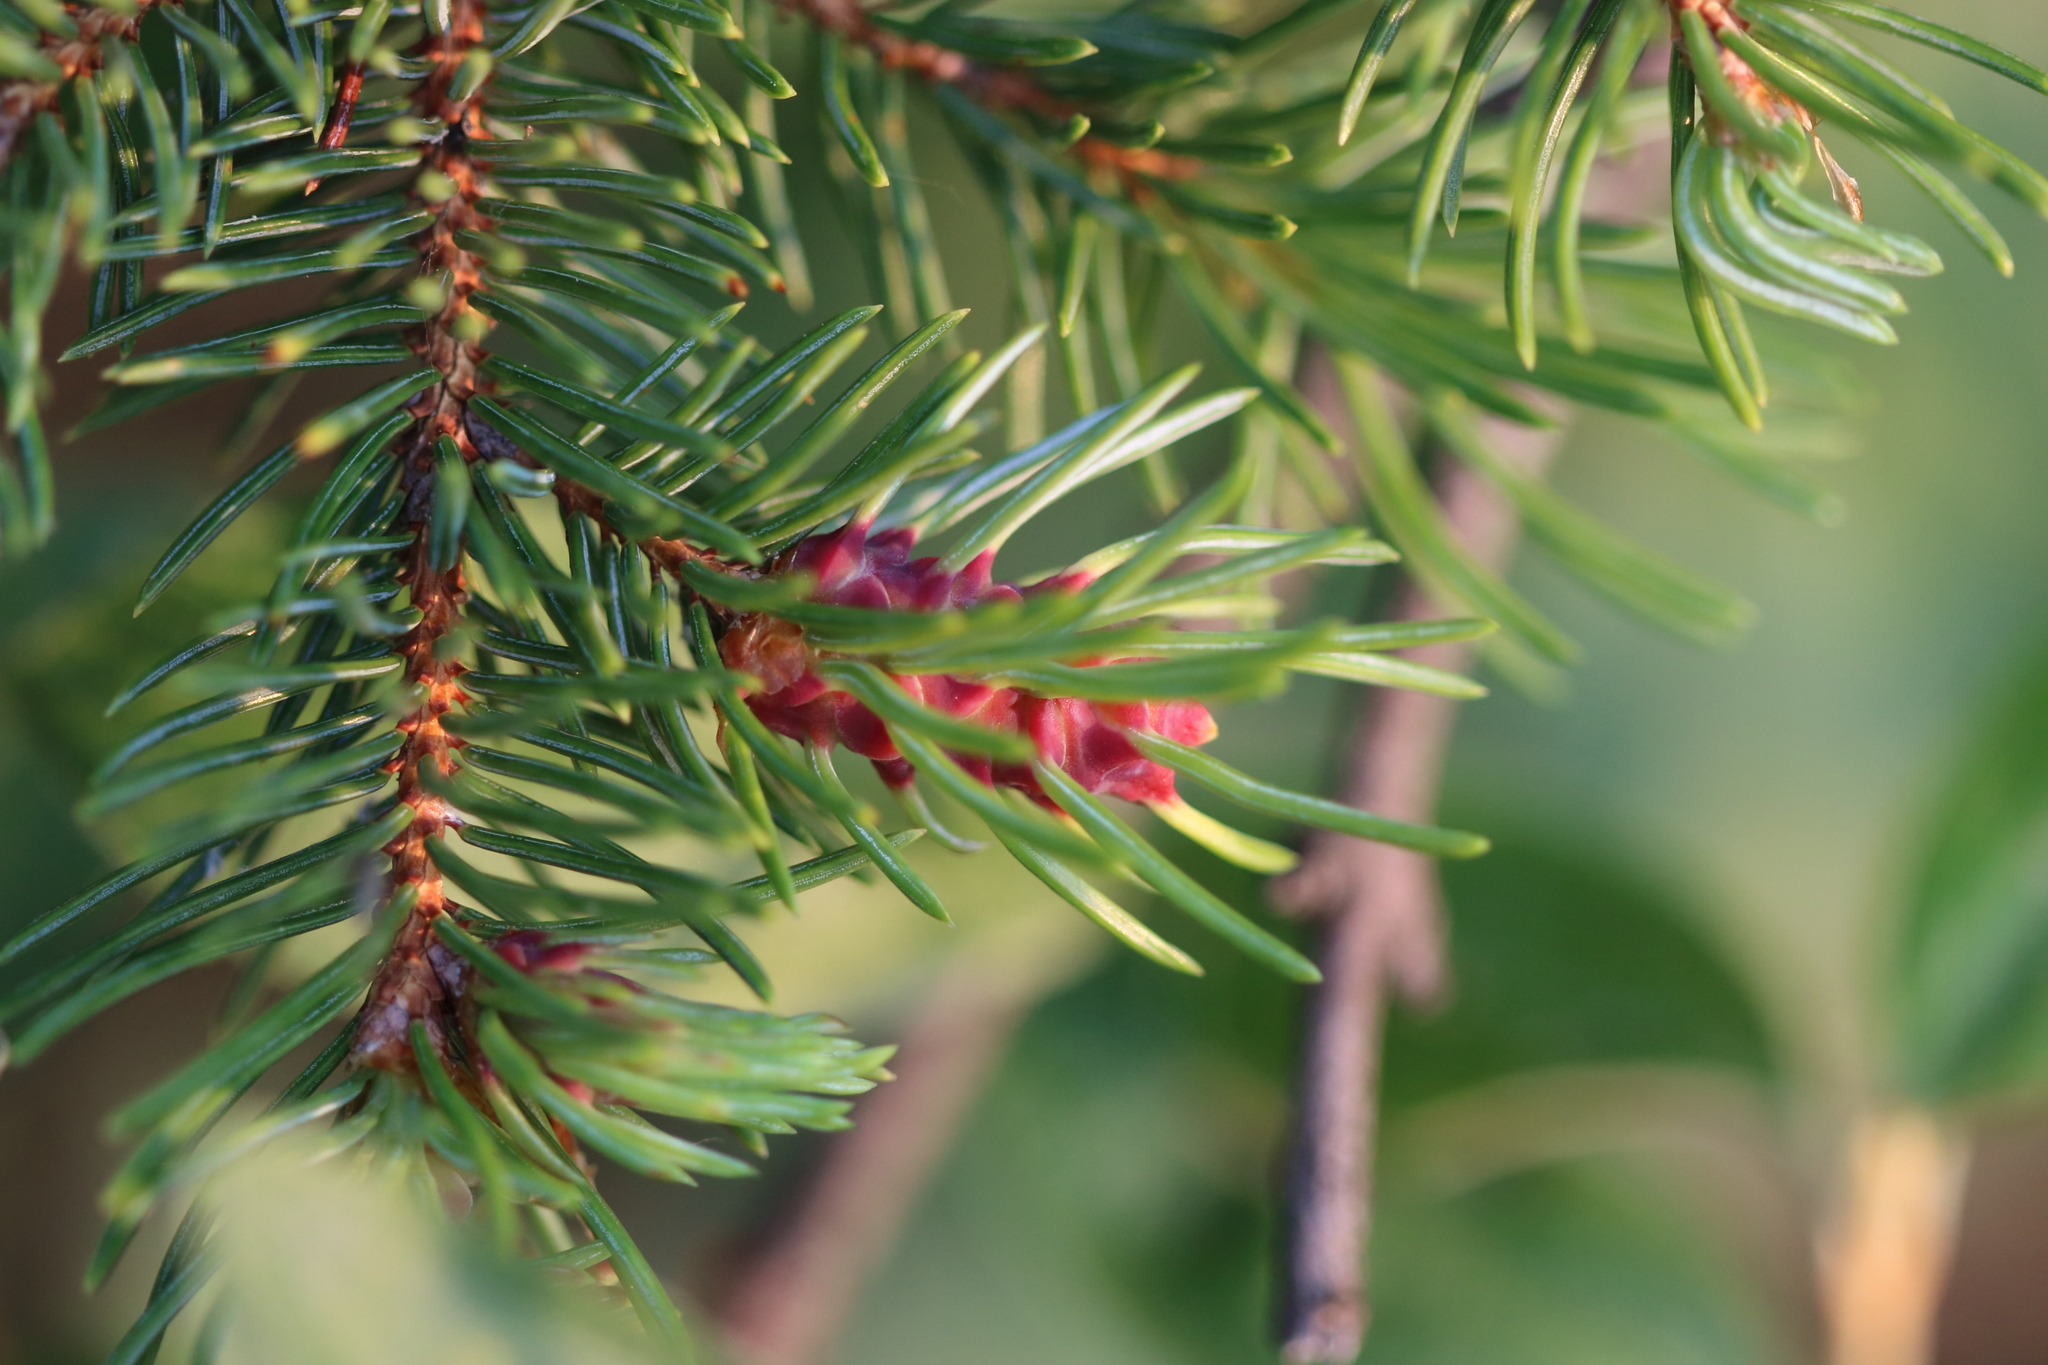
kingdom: Animalia
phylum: Arthropoda
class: Insecta
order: Hemiptera
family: Adelgidae
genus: Adelges
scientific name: Adelges cooleyi
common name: Cooley spruce gall adelgid
